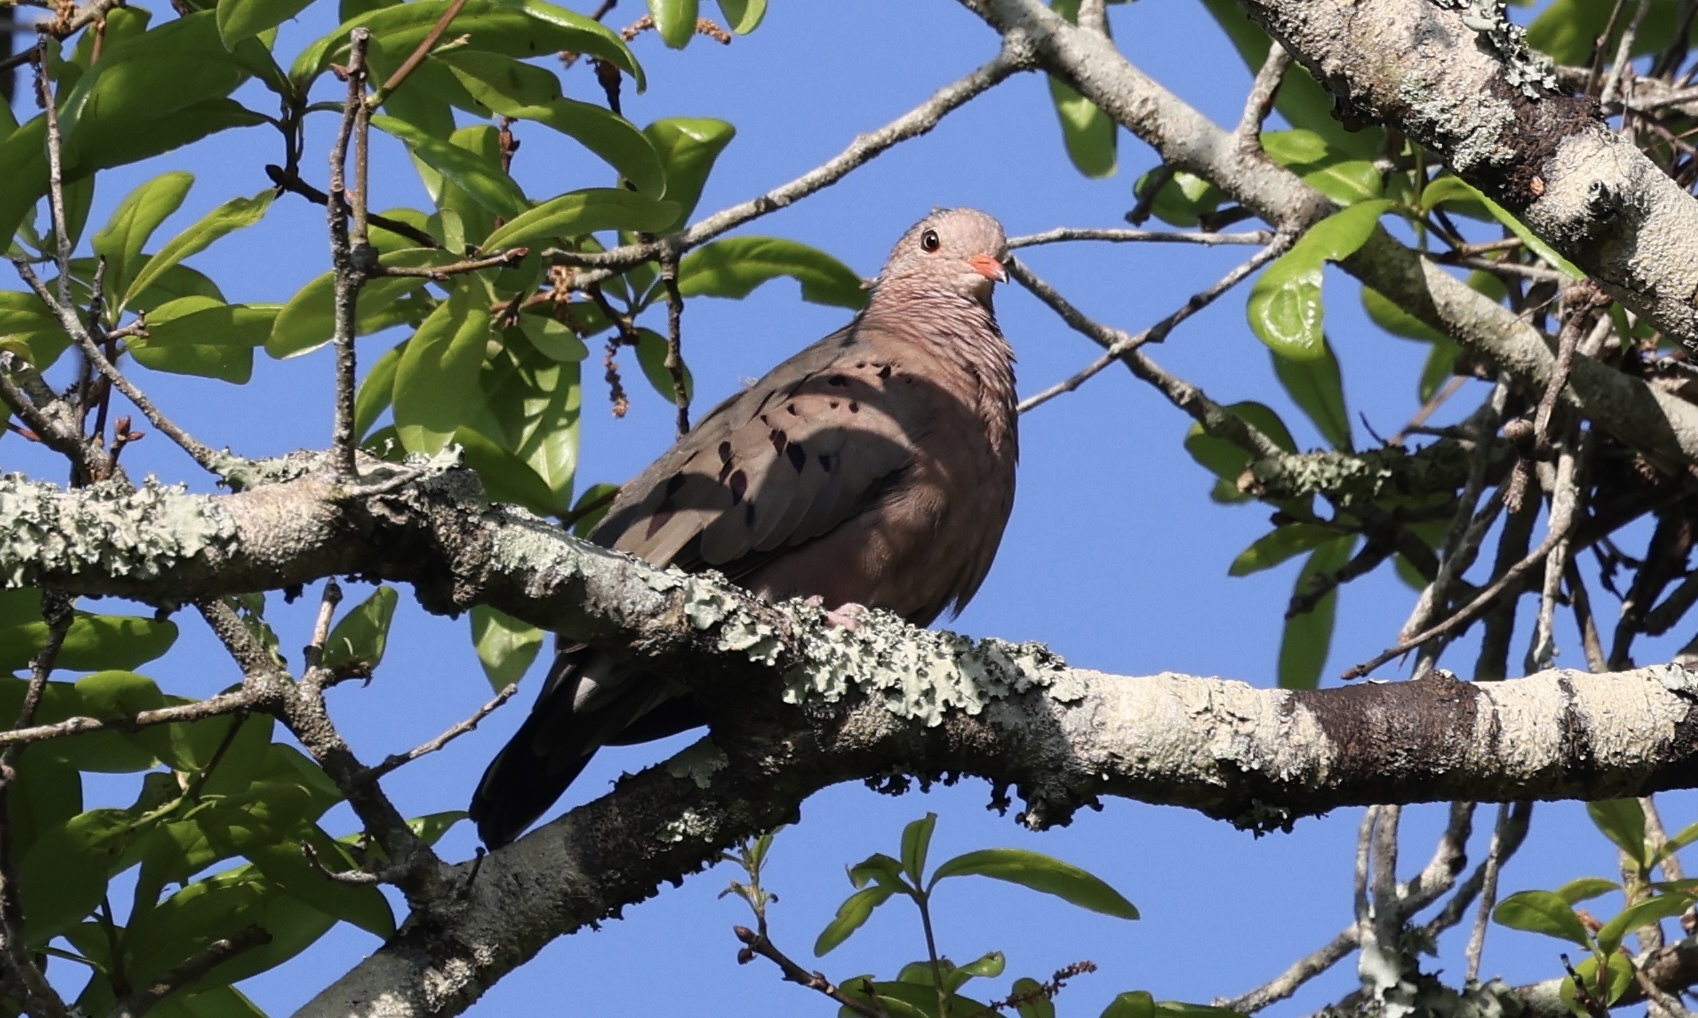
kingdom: Animalia
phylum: Chordata
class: Aves
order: Columbiformes
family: Columbidae
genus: Columbina
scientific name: Columbina passerina
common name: Common ground-dove
